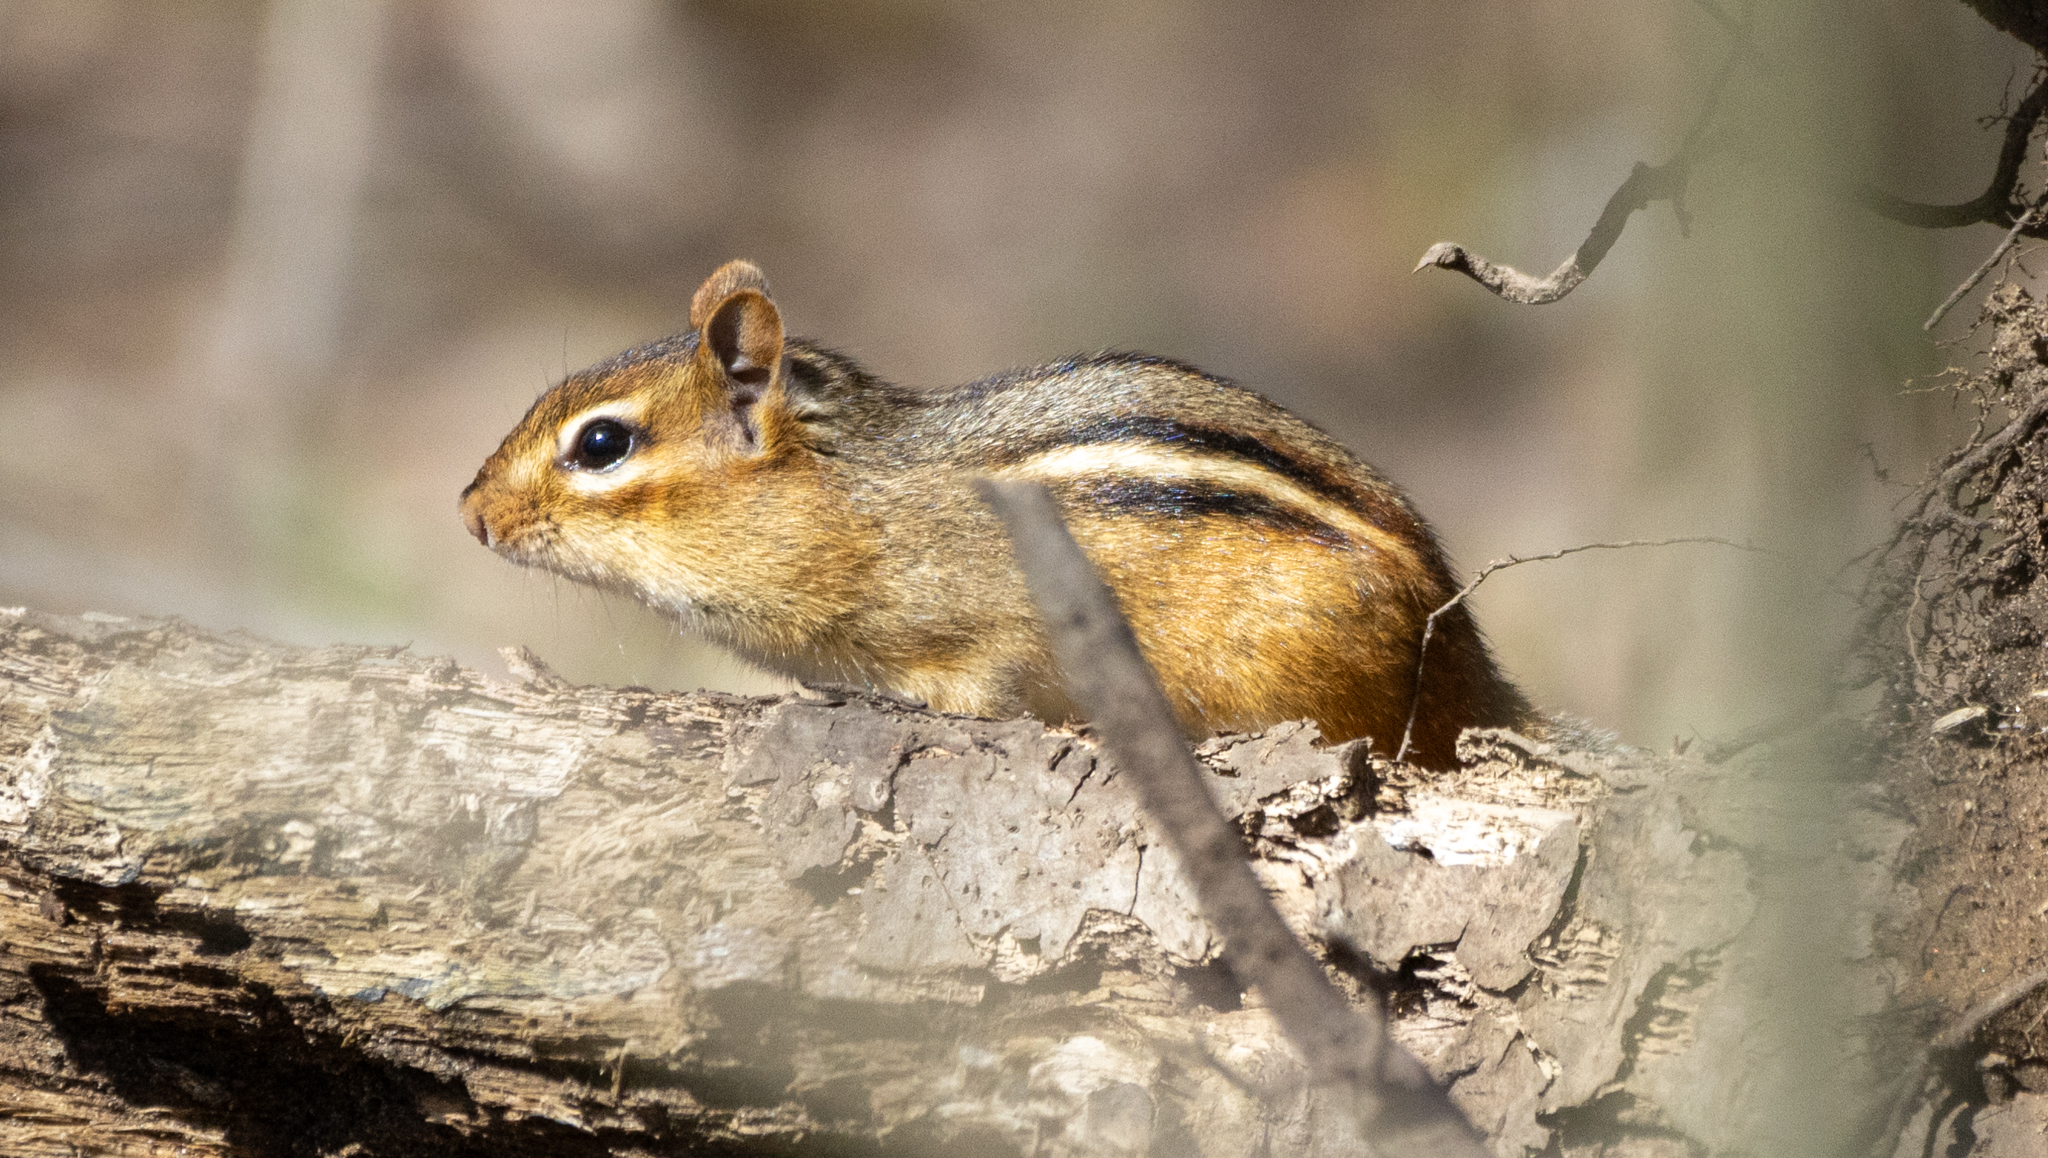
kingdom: Animalia
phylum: Chordata
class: Mammalia
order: Rodentia
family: Sciuridae
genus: Tamias
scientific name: Tamias striatus
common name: Eastern chipmunk
